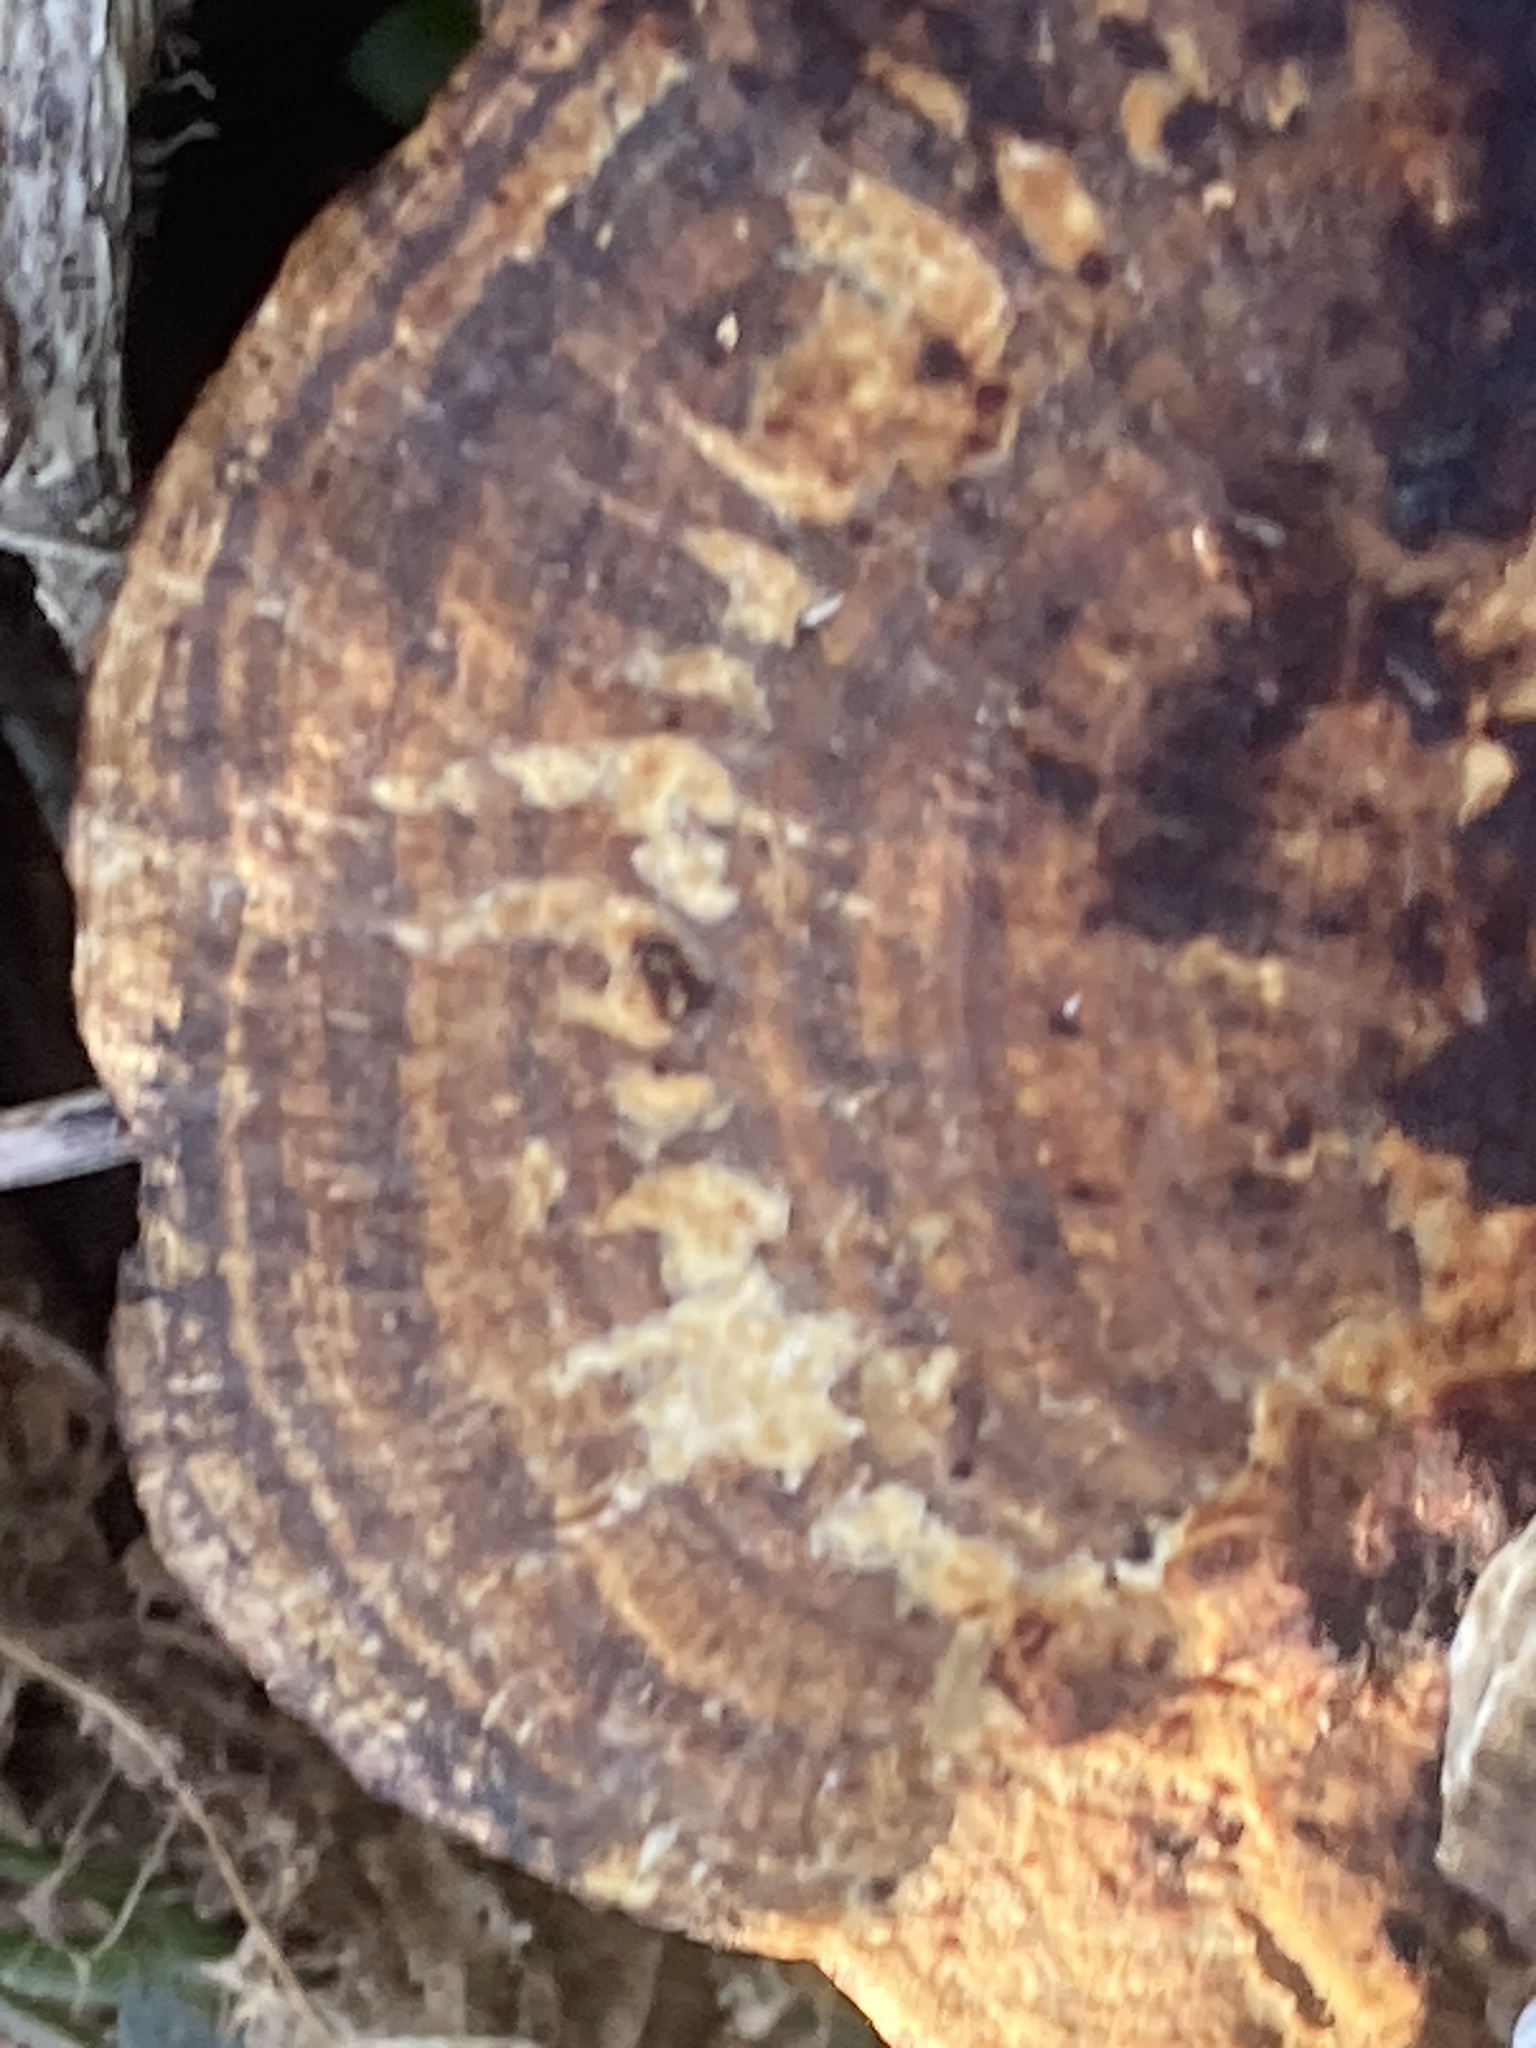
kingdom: Fungi
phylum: Basidiomycota
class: Agaricomycetes
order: Polyporales
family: Polyporaceae
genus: Daedaleopsis
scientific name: Daedaleopsis confragosa
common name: Blushing bracket
